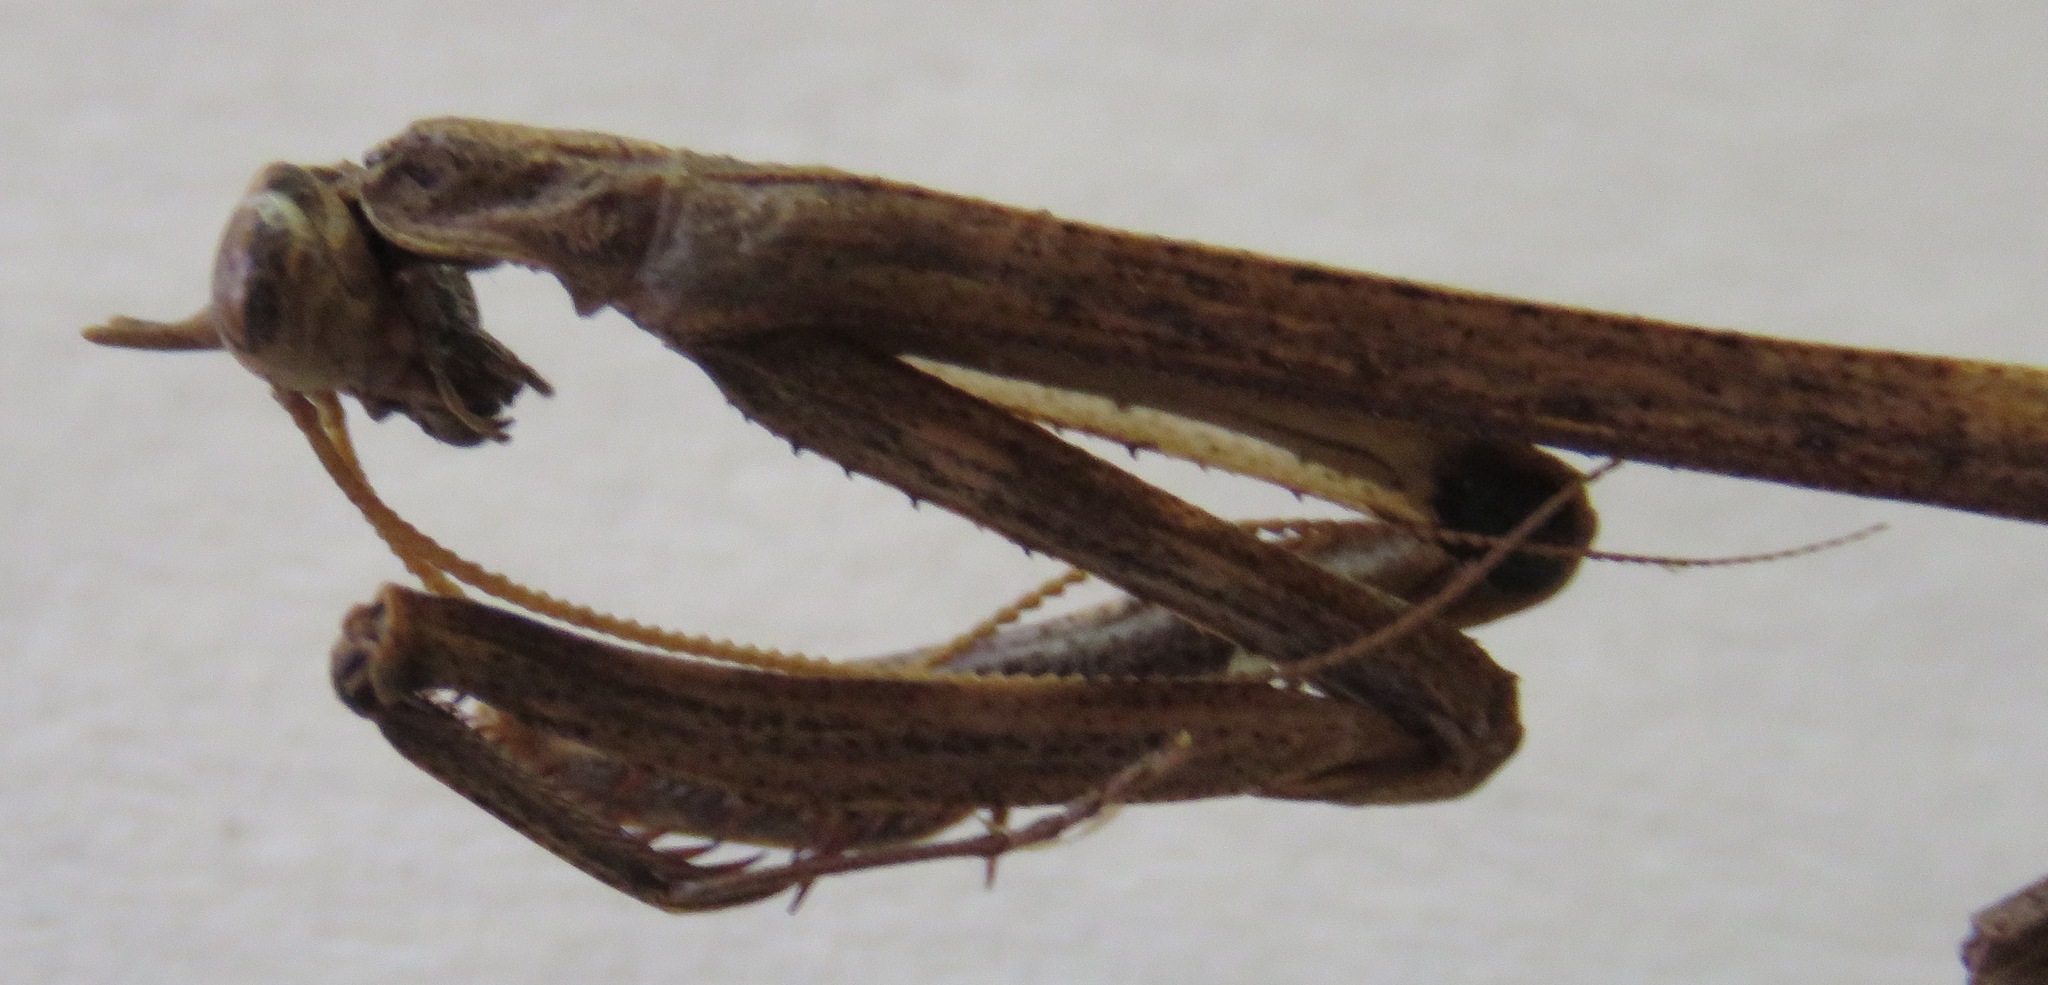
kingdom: Animalia
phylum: Arthropoda
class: Insecta
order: Mantodea
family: Mantidae
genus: Pseudovates
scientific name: Pseudovates chlorophaea
